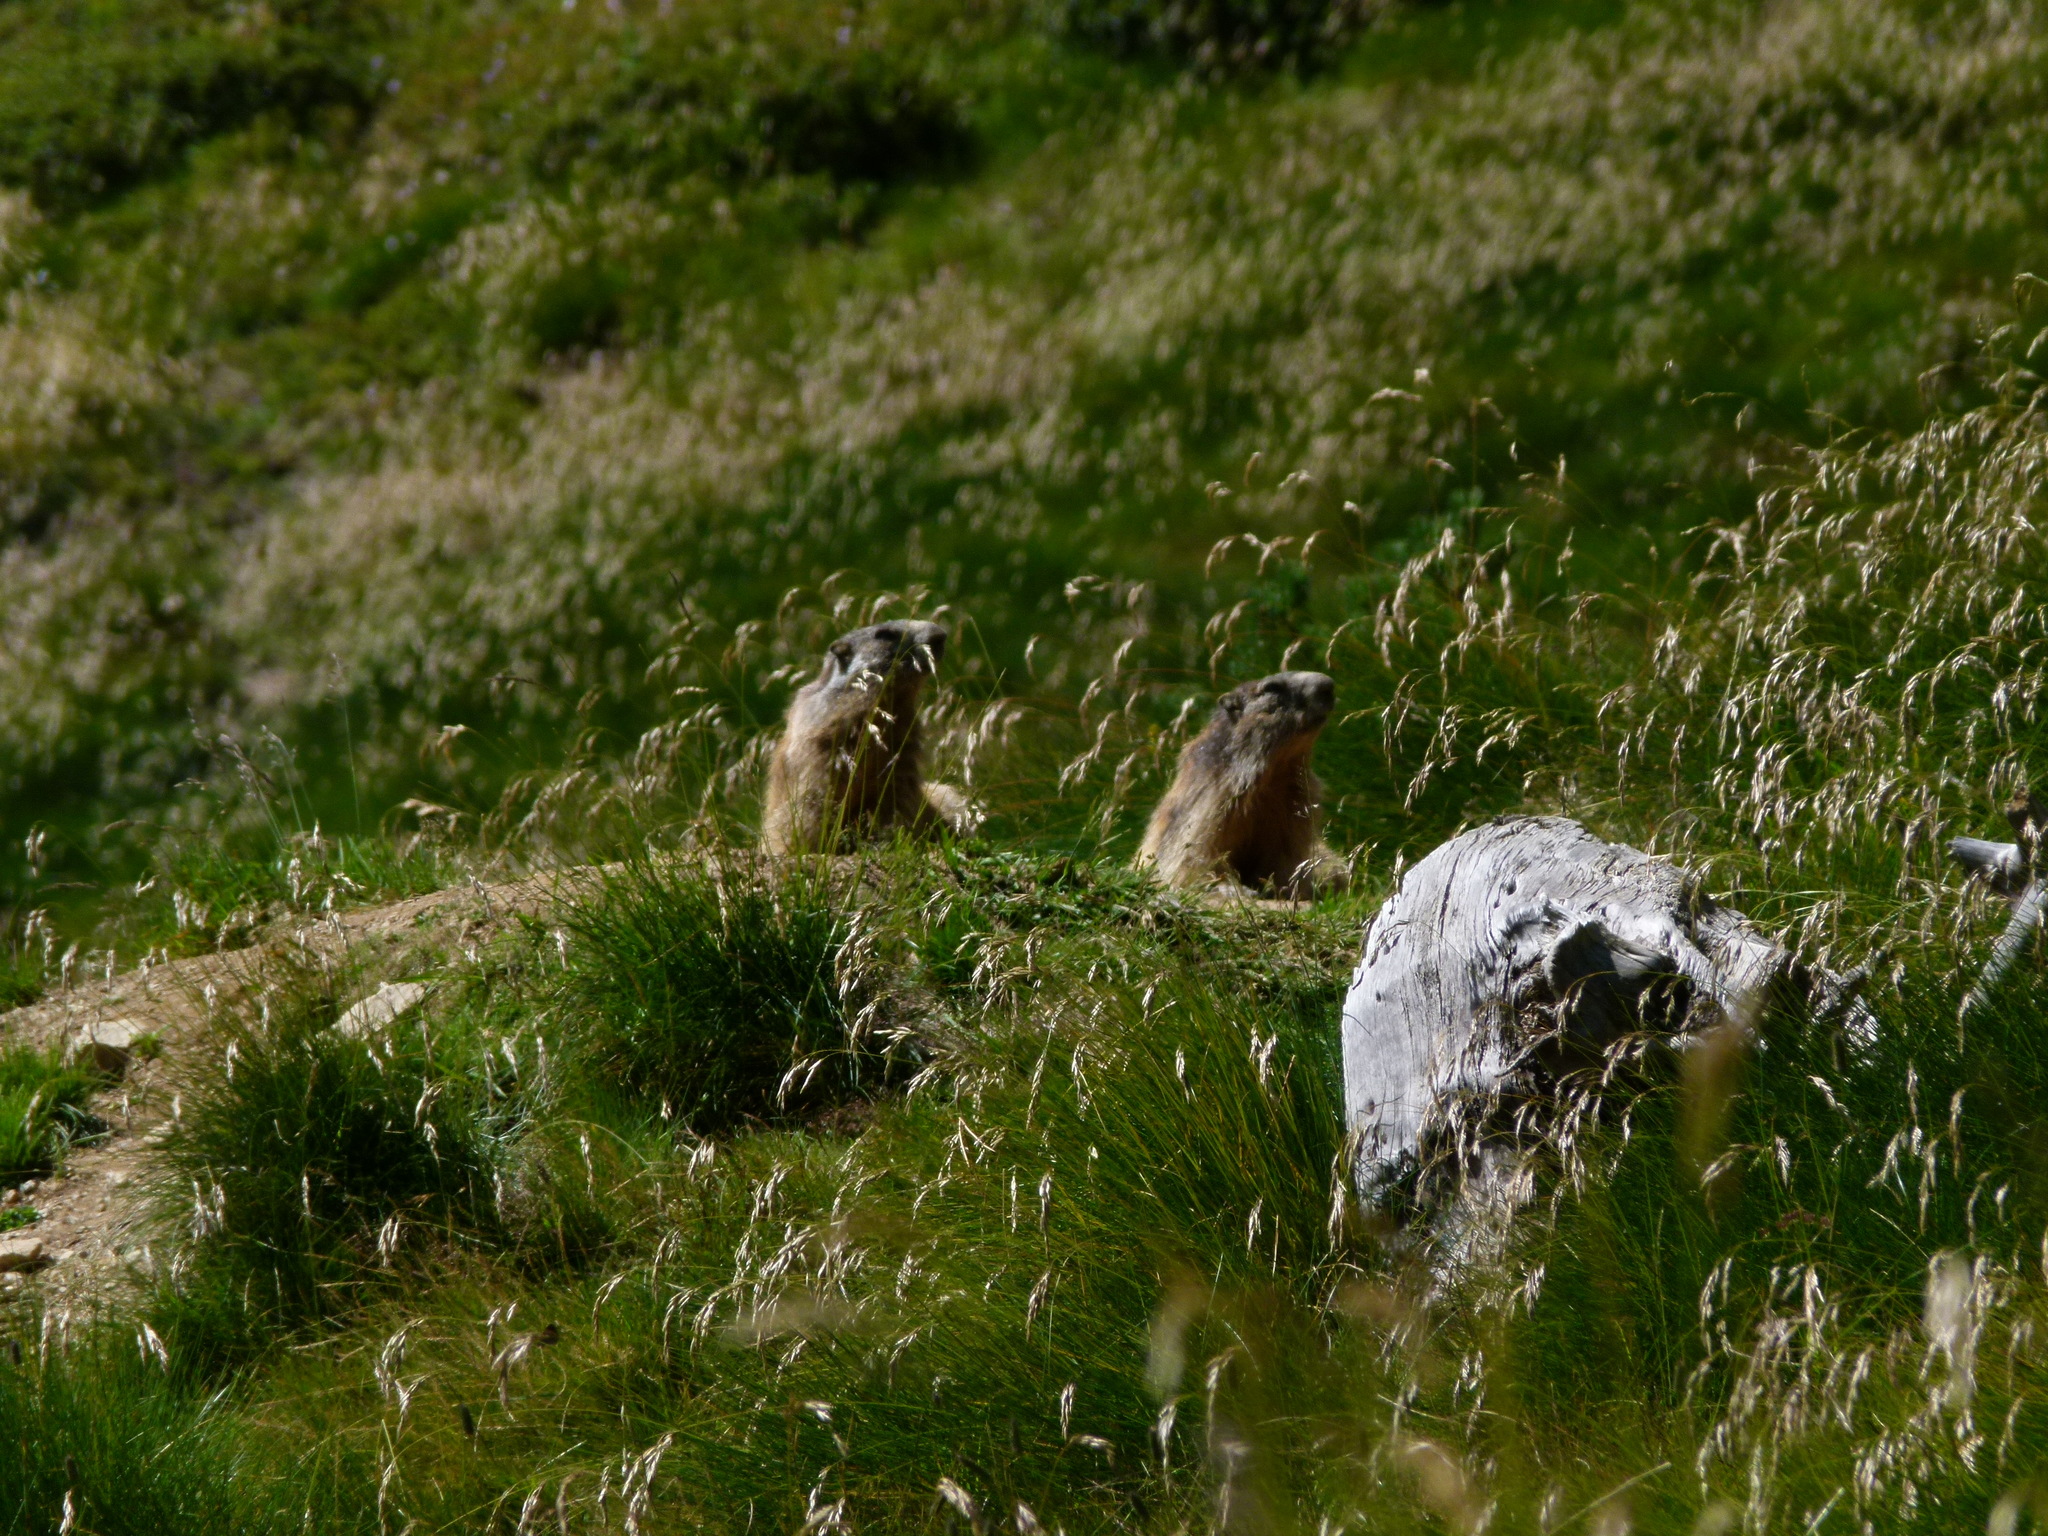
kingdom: Animalia
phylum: Chordata
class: Mammalia
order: Rodentia
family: Sciuridae
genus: Marmota
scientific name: Marmota marmota
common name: Alpine marmot
